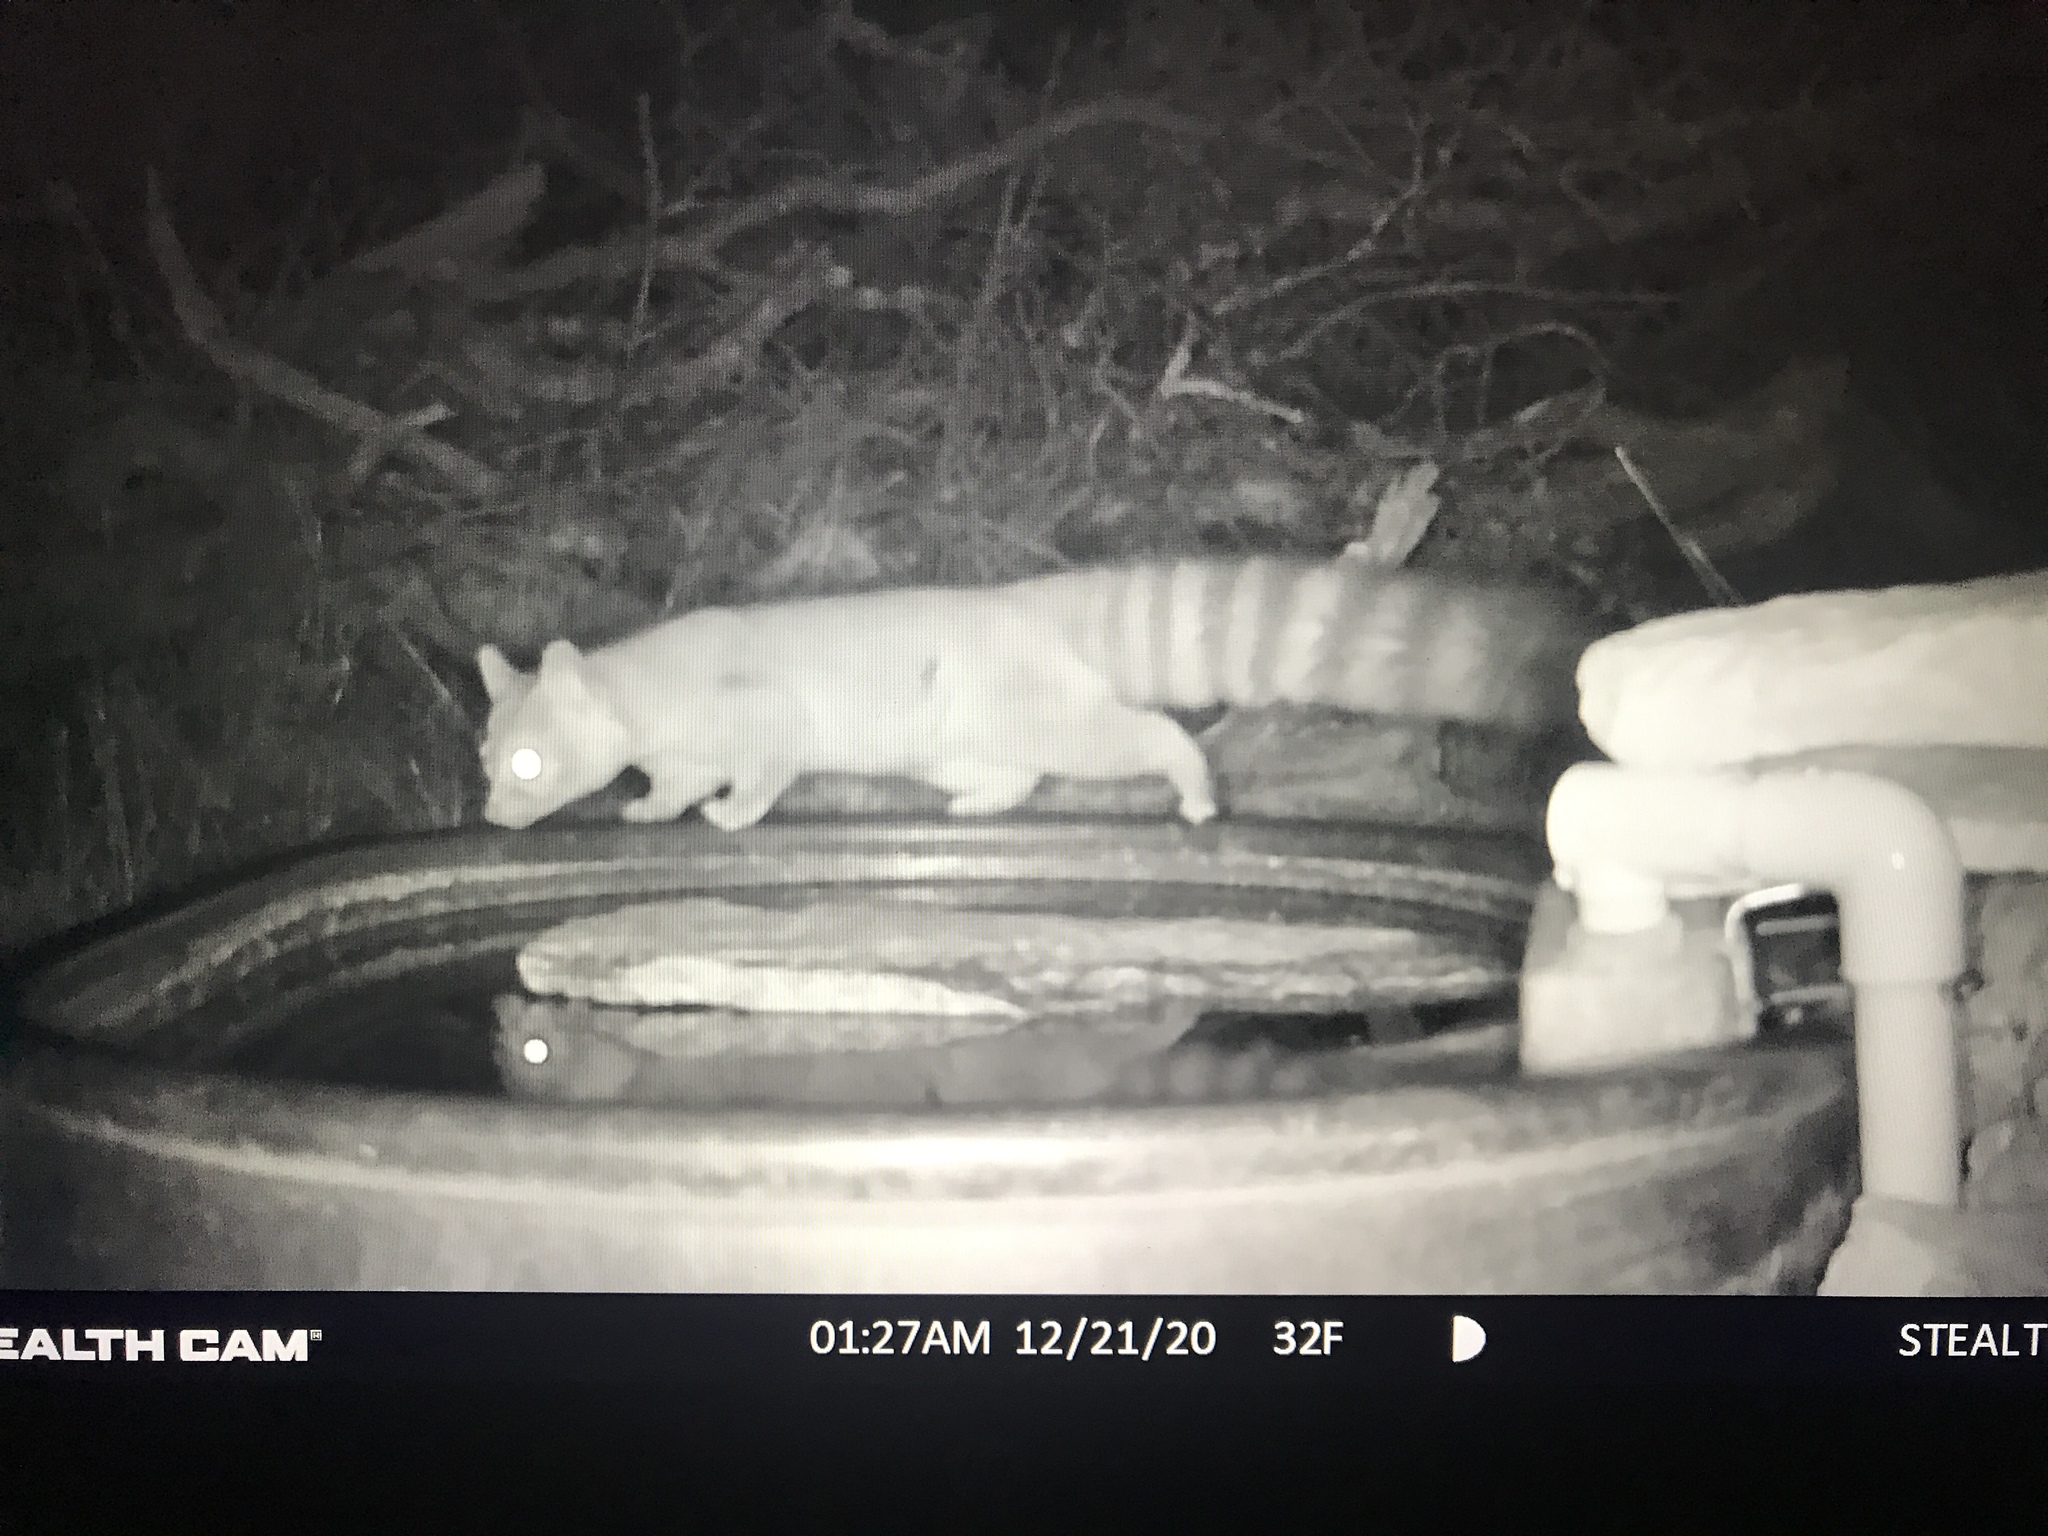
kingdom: Animalia
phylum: Chordata
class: Mammalia
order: Carnivora
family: Procyonidae
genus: Bassariscus
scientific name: Bassariscus astutus
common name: Ringtail
